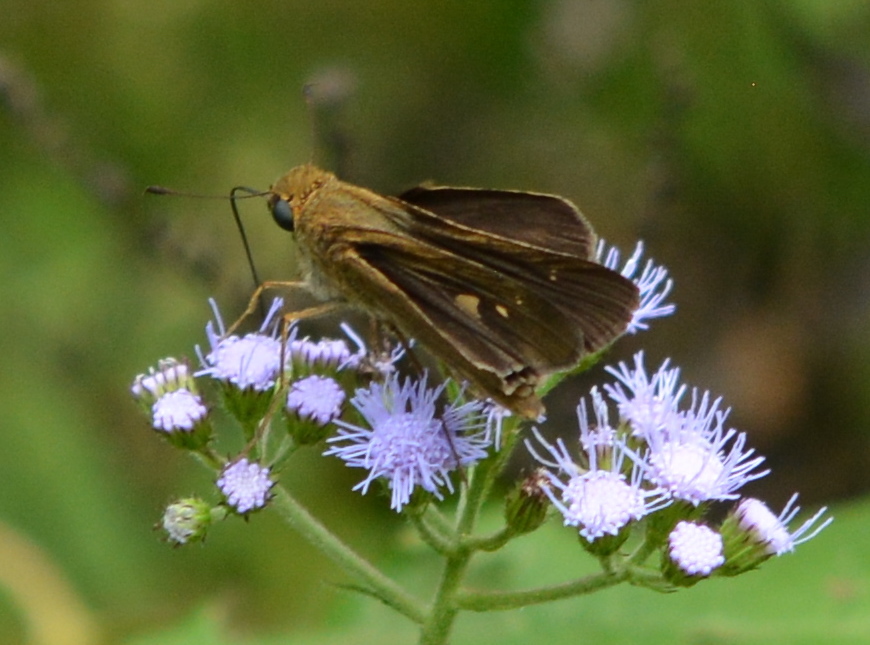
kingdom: Animalia
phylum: Arthropoda
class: Insecta
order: Lepidoptera
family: Hesperiidae
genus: Panoquina
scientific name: Panoquina ocola
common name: Ocola skipper
